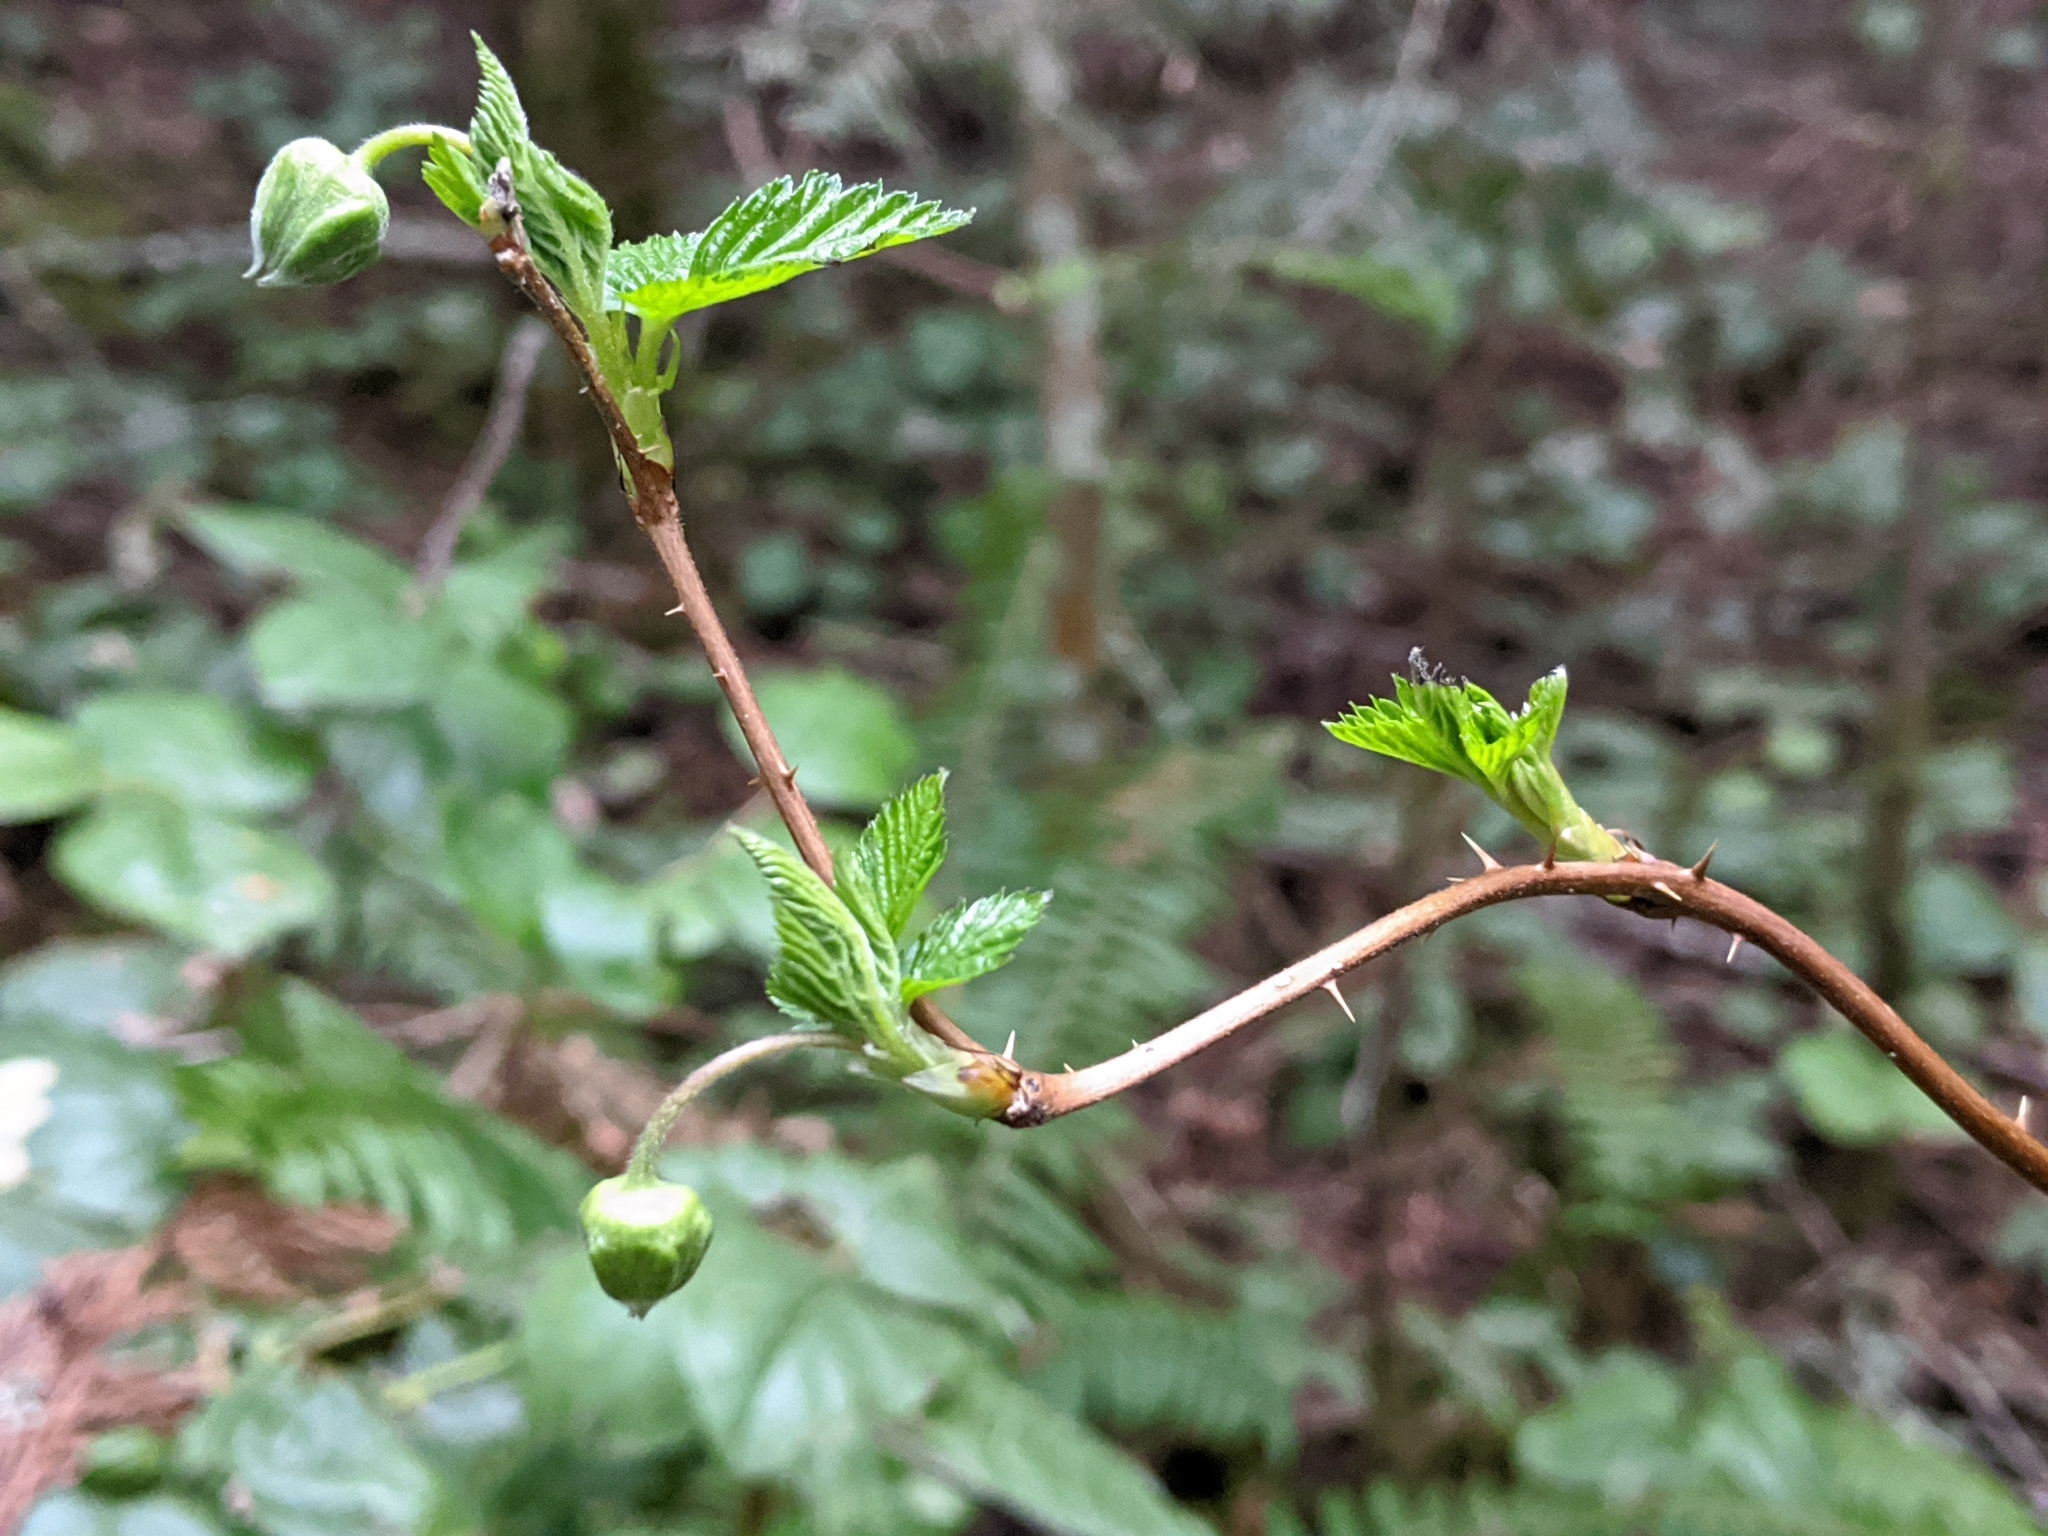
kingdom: Plantae
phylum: Tracheophyta
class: Magnoliopsida
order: Rosales
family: Rosaceae
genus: Rubus
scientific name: Rubus spectabilis
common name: Salmonberry
